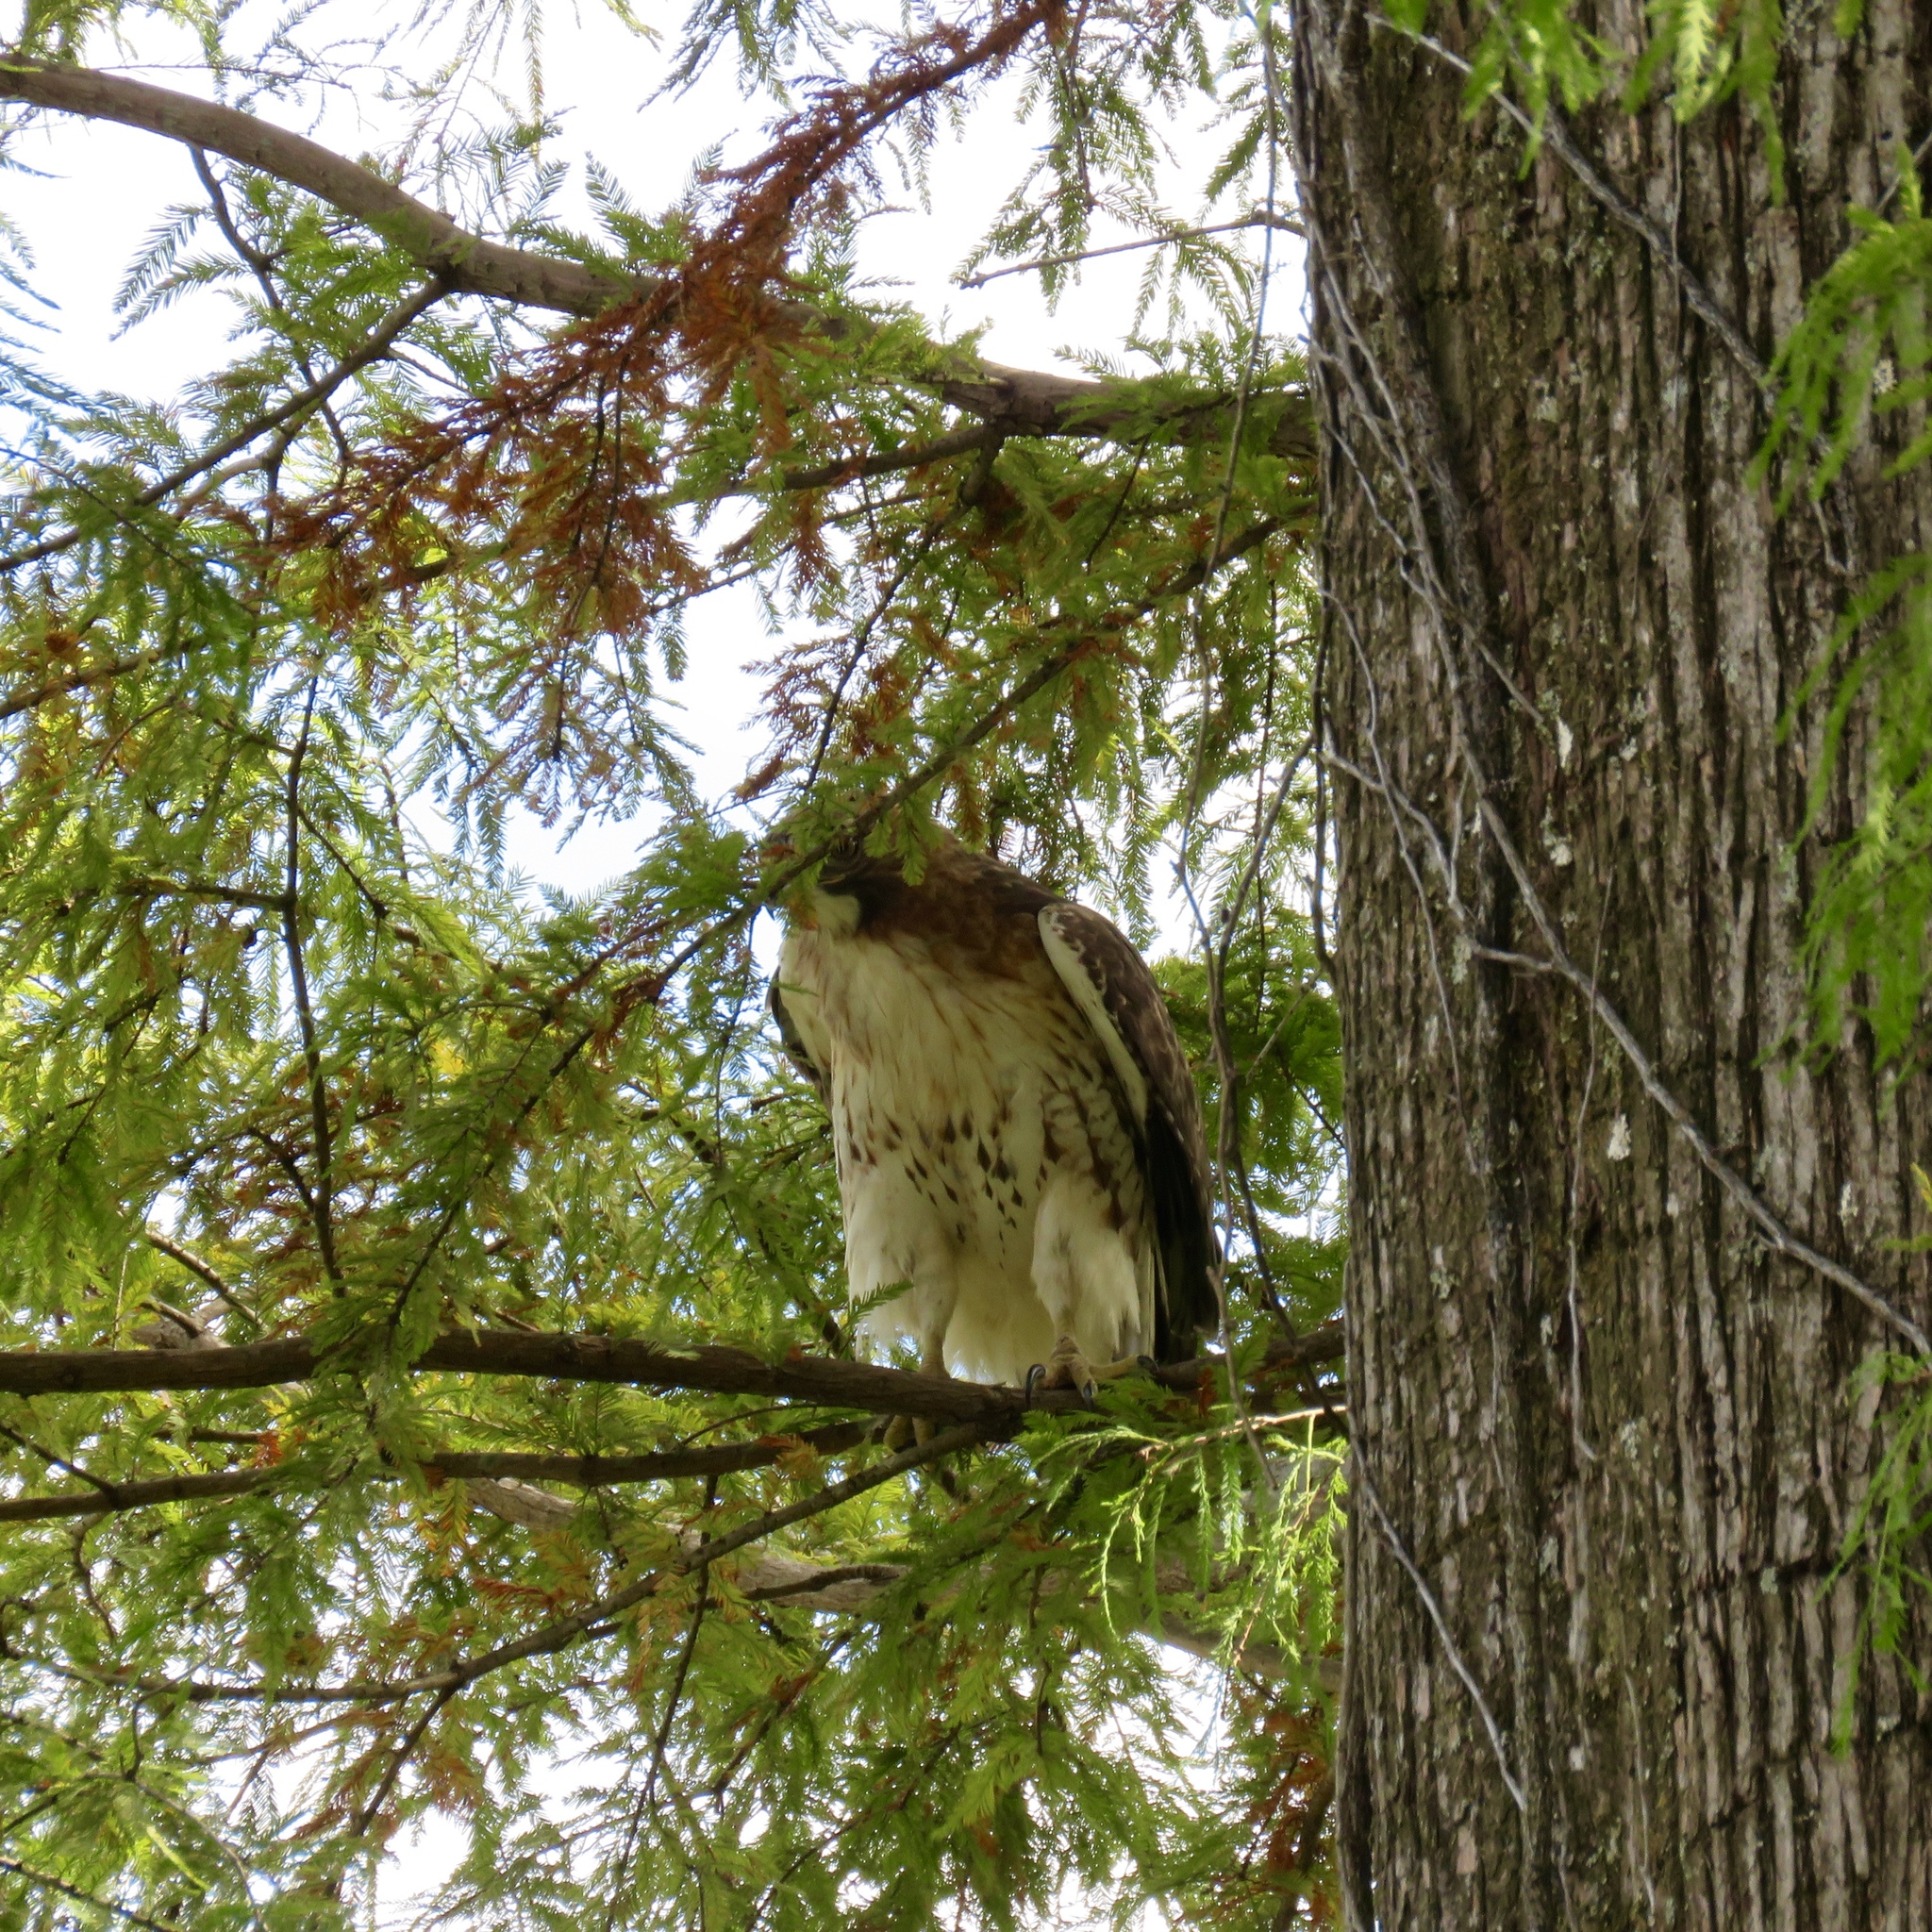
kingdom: Animalia
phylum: Chordata
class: Aves
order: Accipitriformes
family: Accipitridae
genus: Buteo
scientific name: Buteo jamaicensis
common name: Red-tailed hawk
